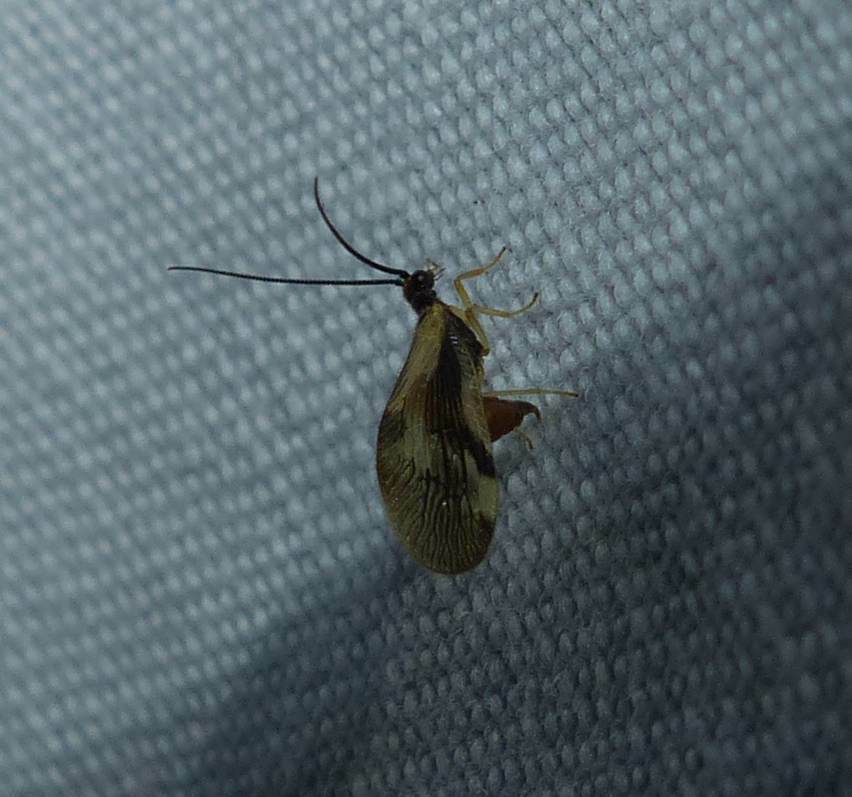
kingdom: Animalia
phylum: Arthropoda
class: Insecta
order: Neuroptera
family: Sisyridae
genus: Climacia
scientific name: Climacia areolaris
